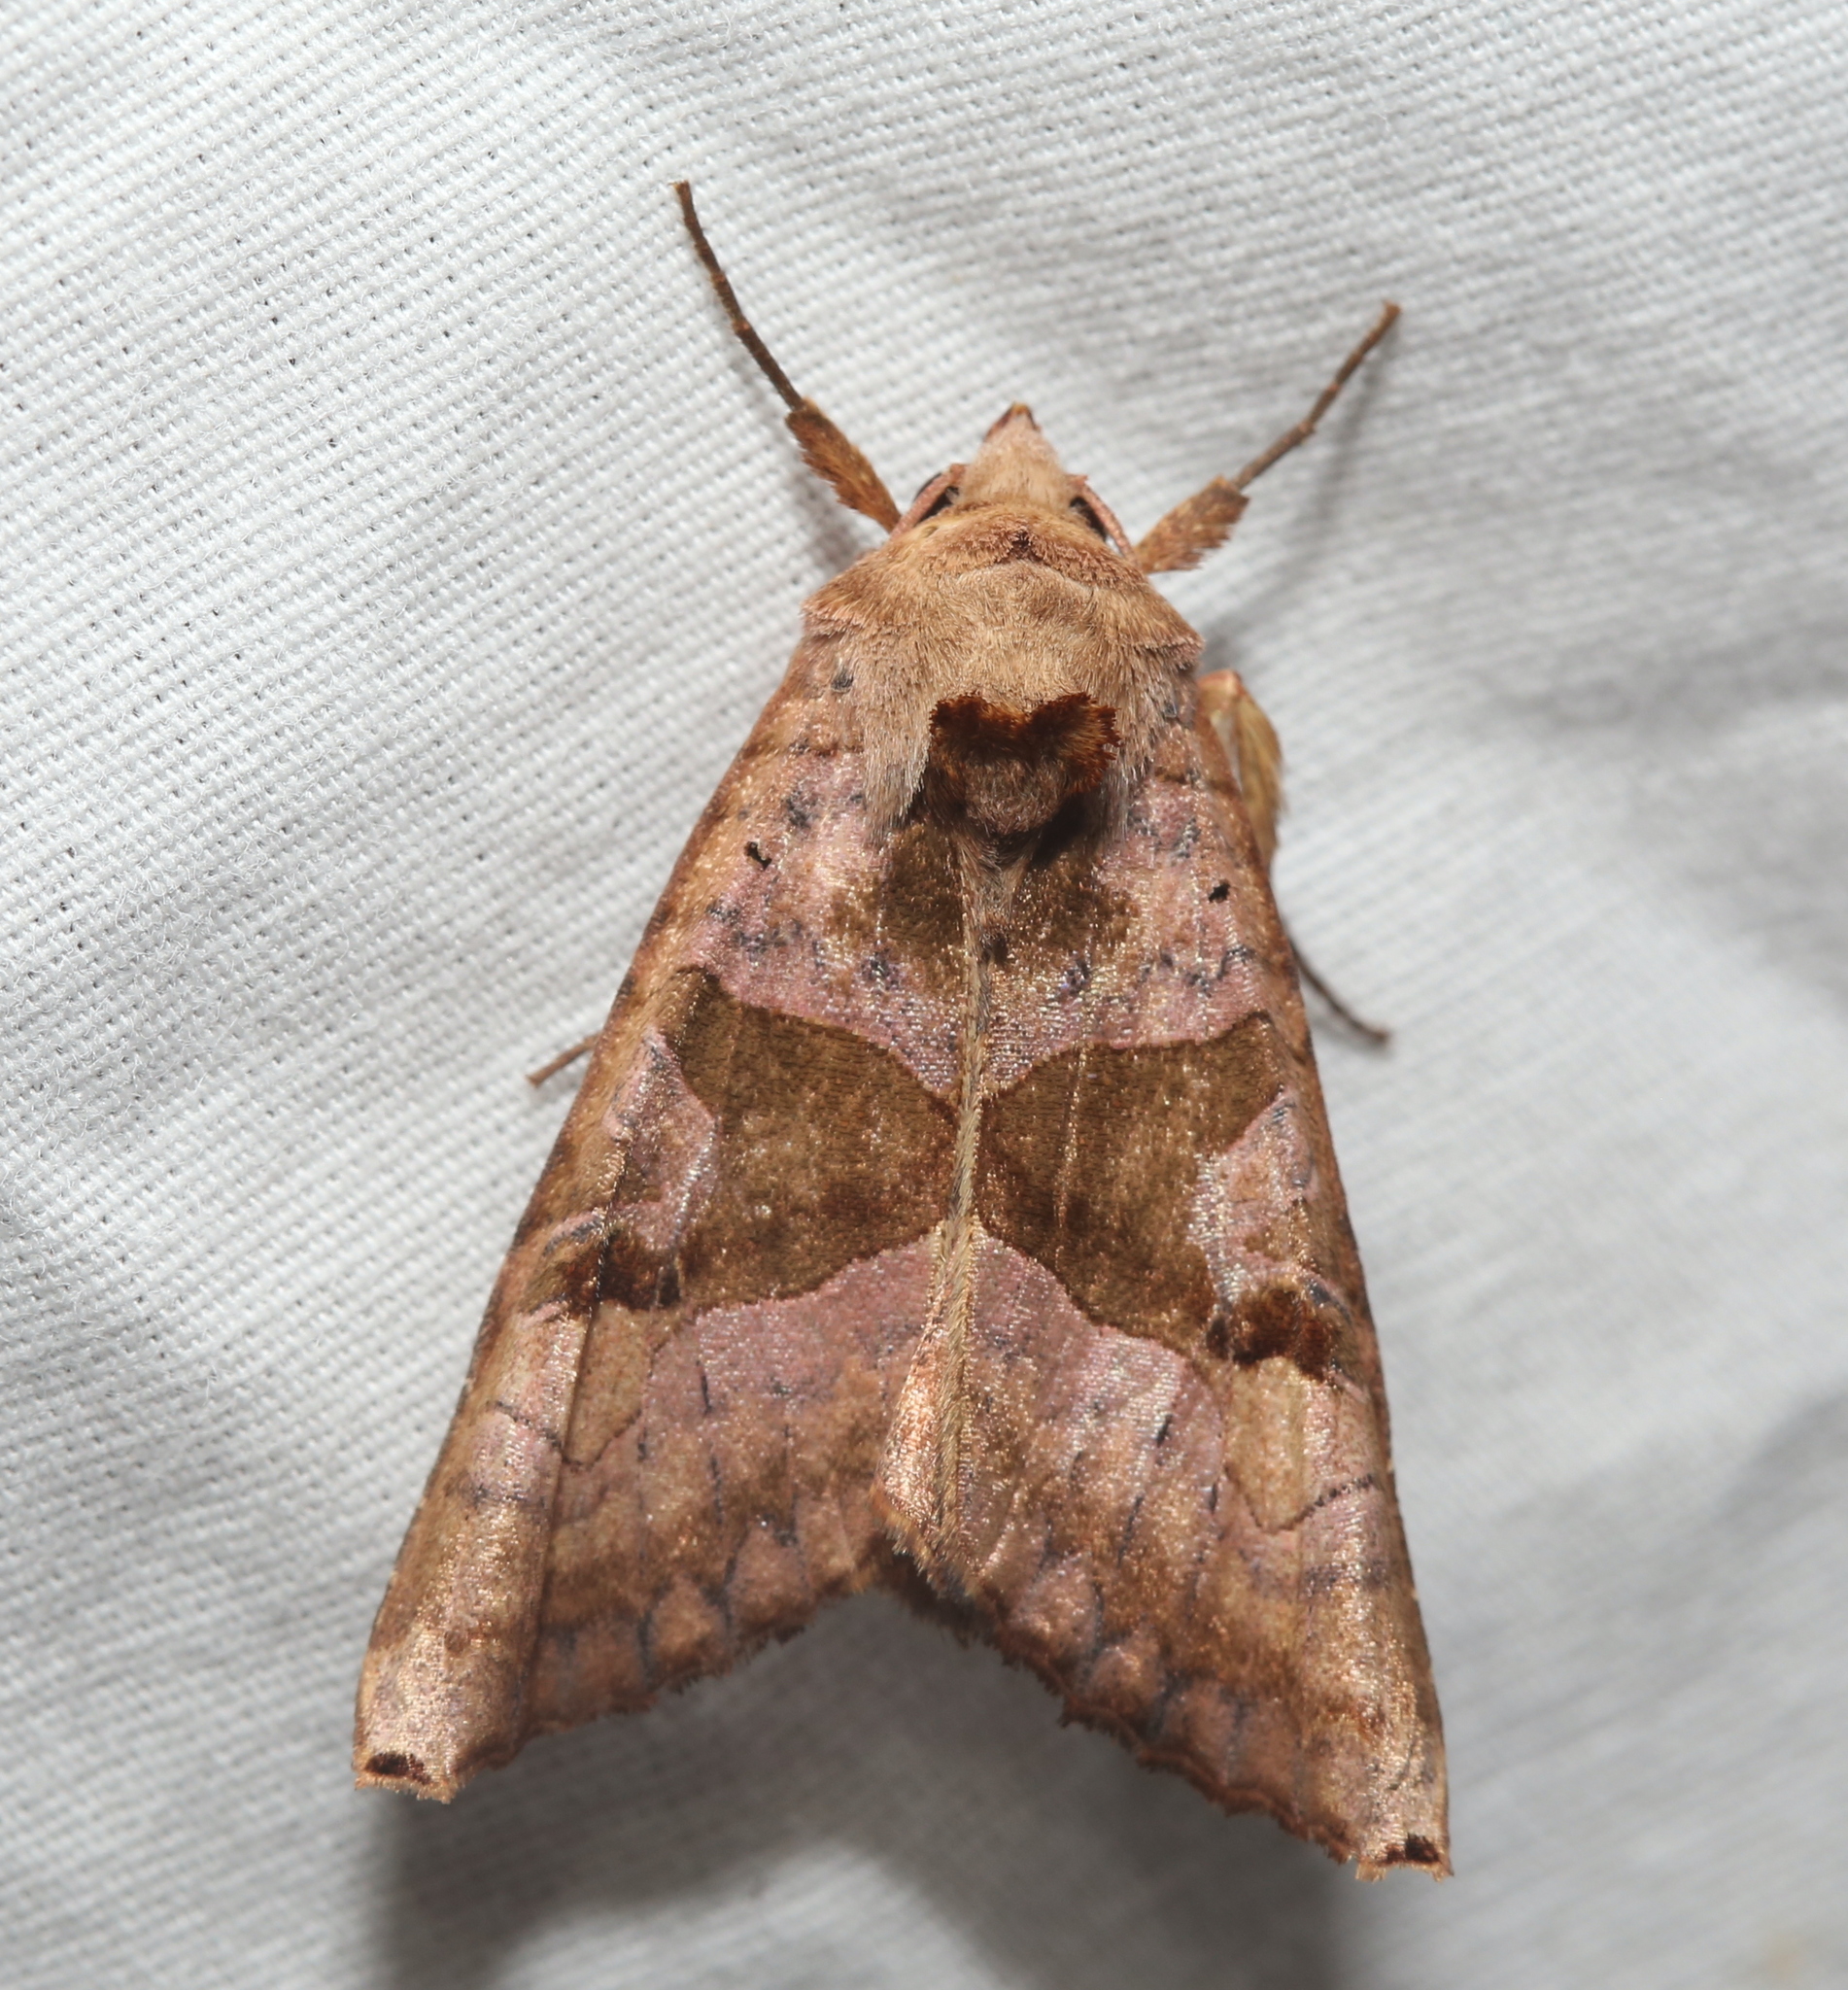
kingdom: Animalia
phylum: Arthropoda
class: Insecta
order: Lepidoptera
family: Noctuidae
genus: Phlogophora
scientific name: Phlogophora periculosa
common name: Brown angle shades
